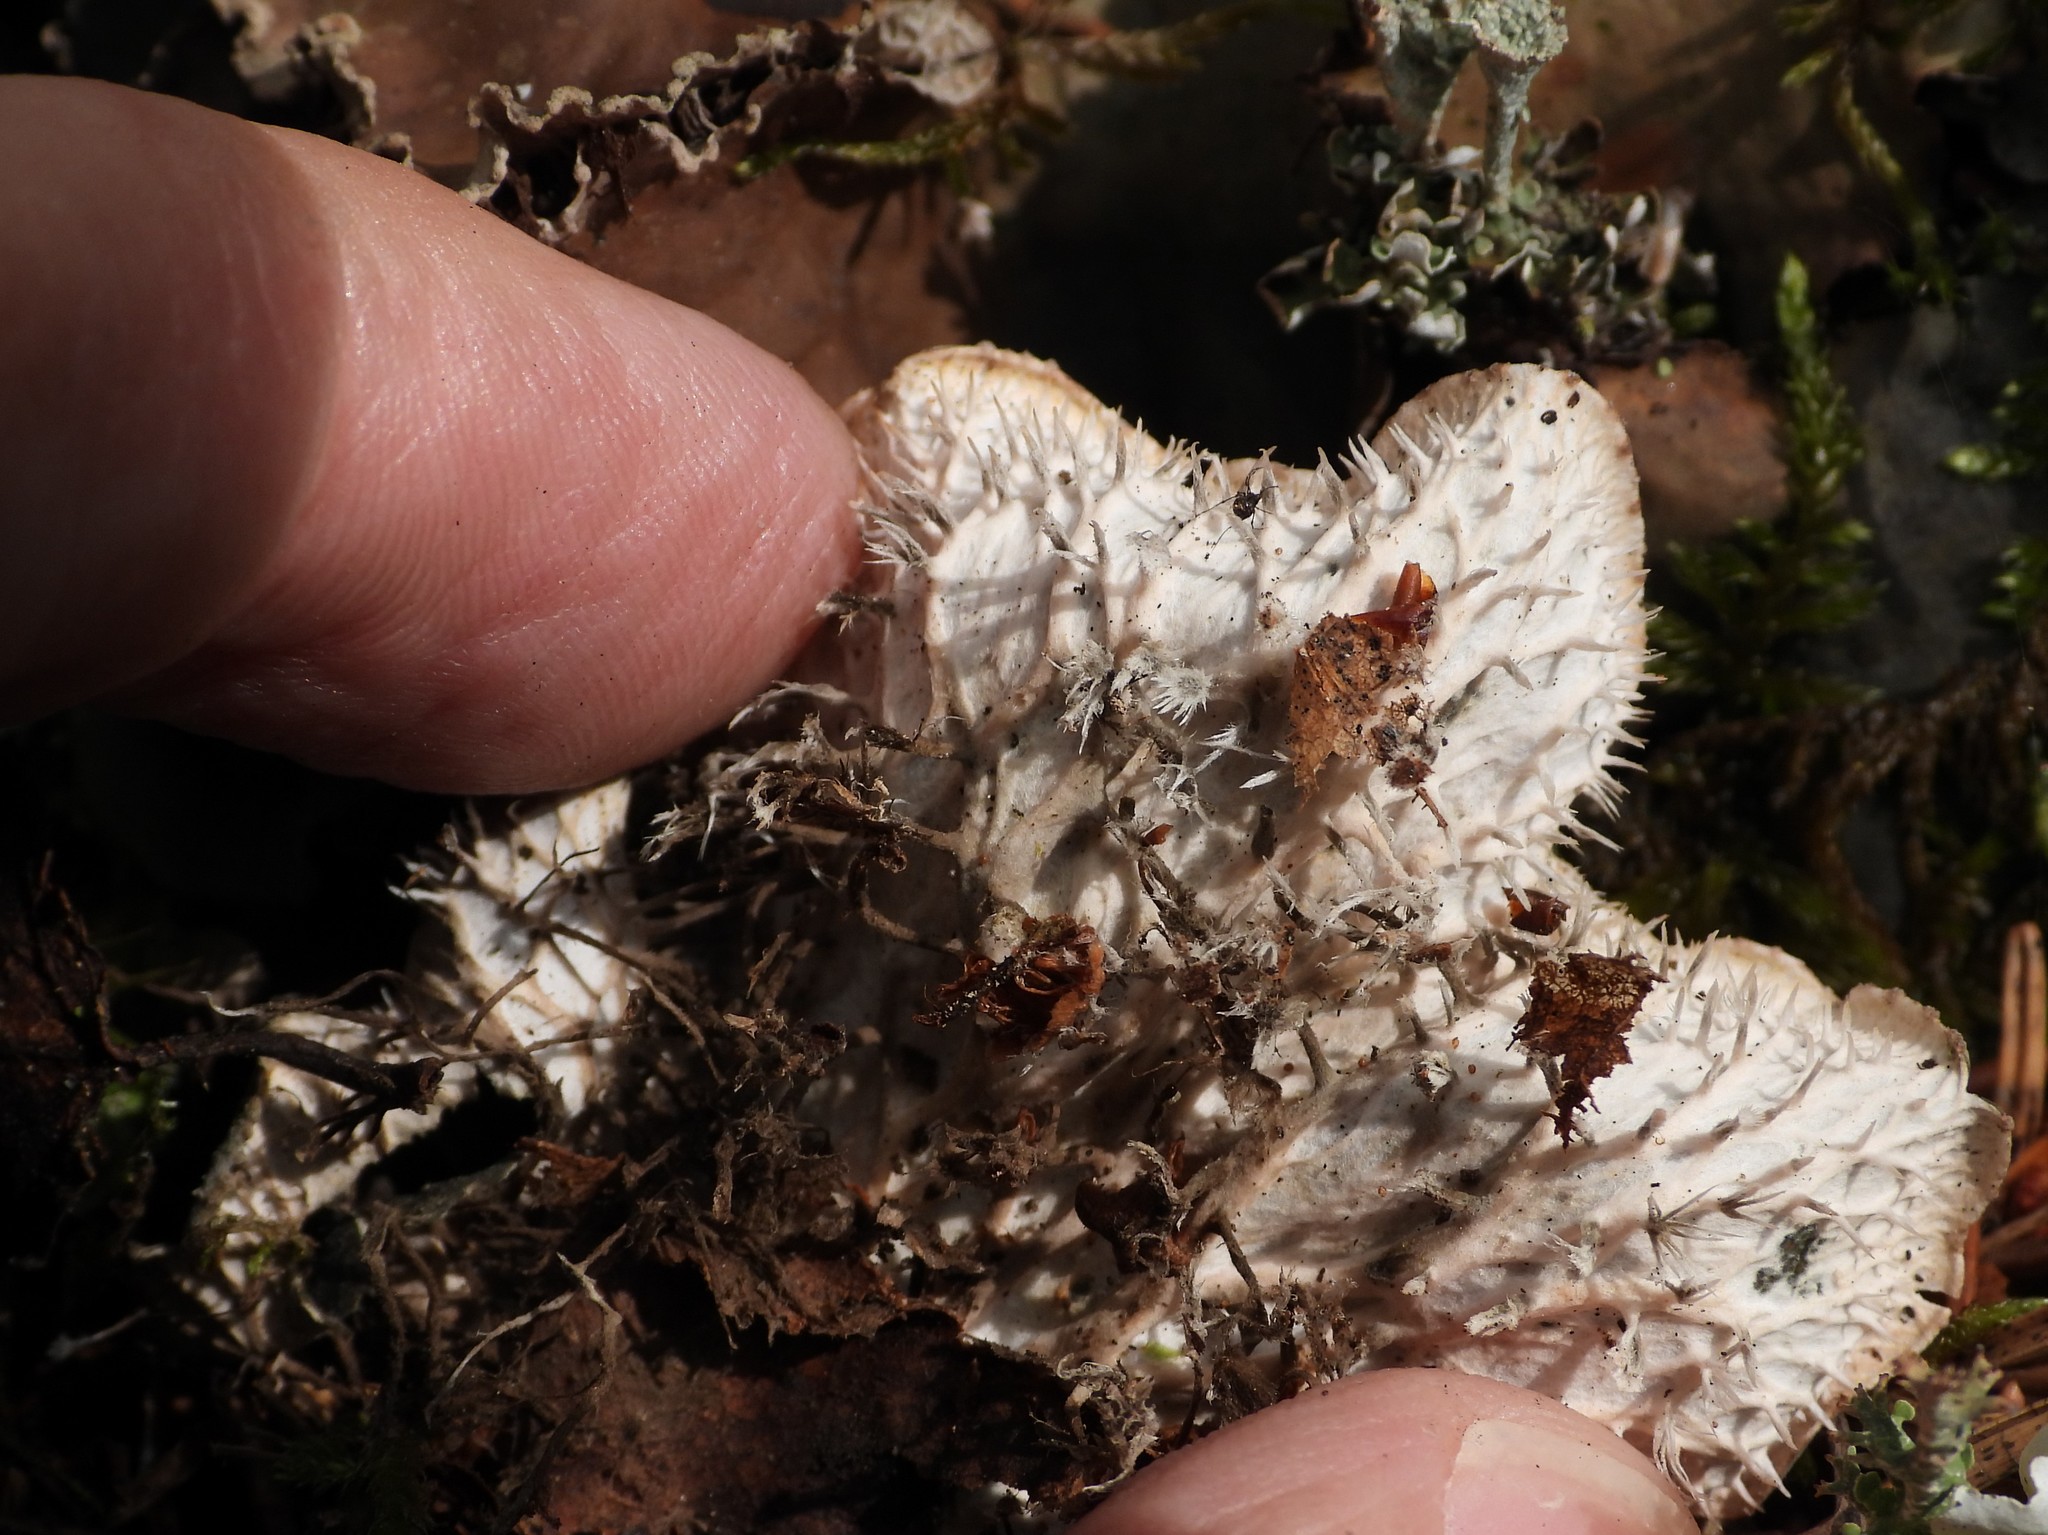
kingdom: Fungi
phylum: Ascomycota
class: Lecanoromycetes
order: Peltigerales
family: Peltigeraceae
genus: Peltigera
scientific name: Peltigera membranacea
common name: Membranous pelt lichen
